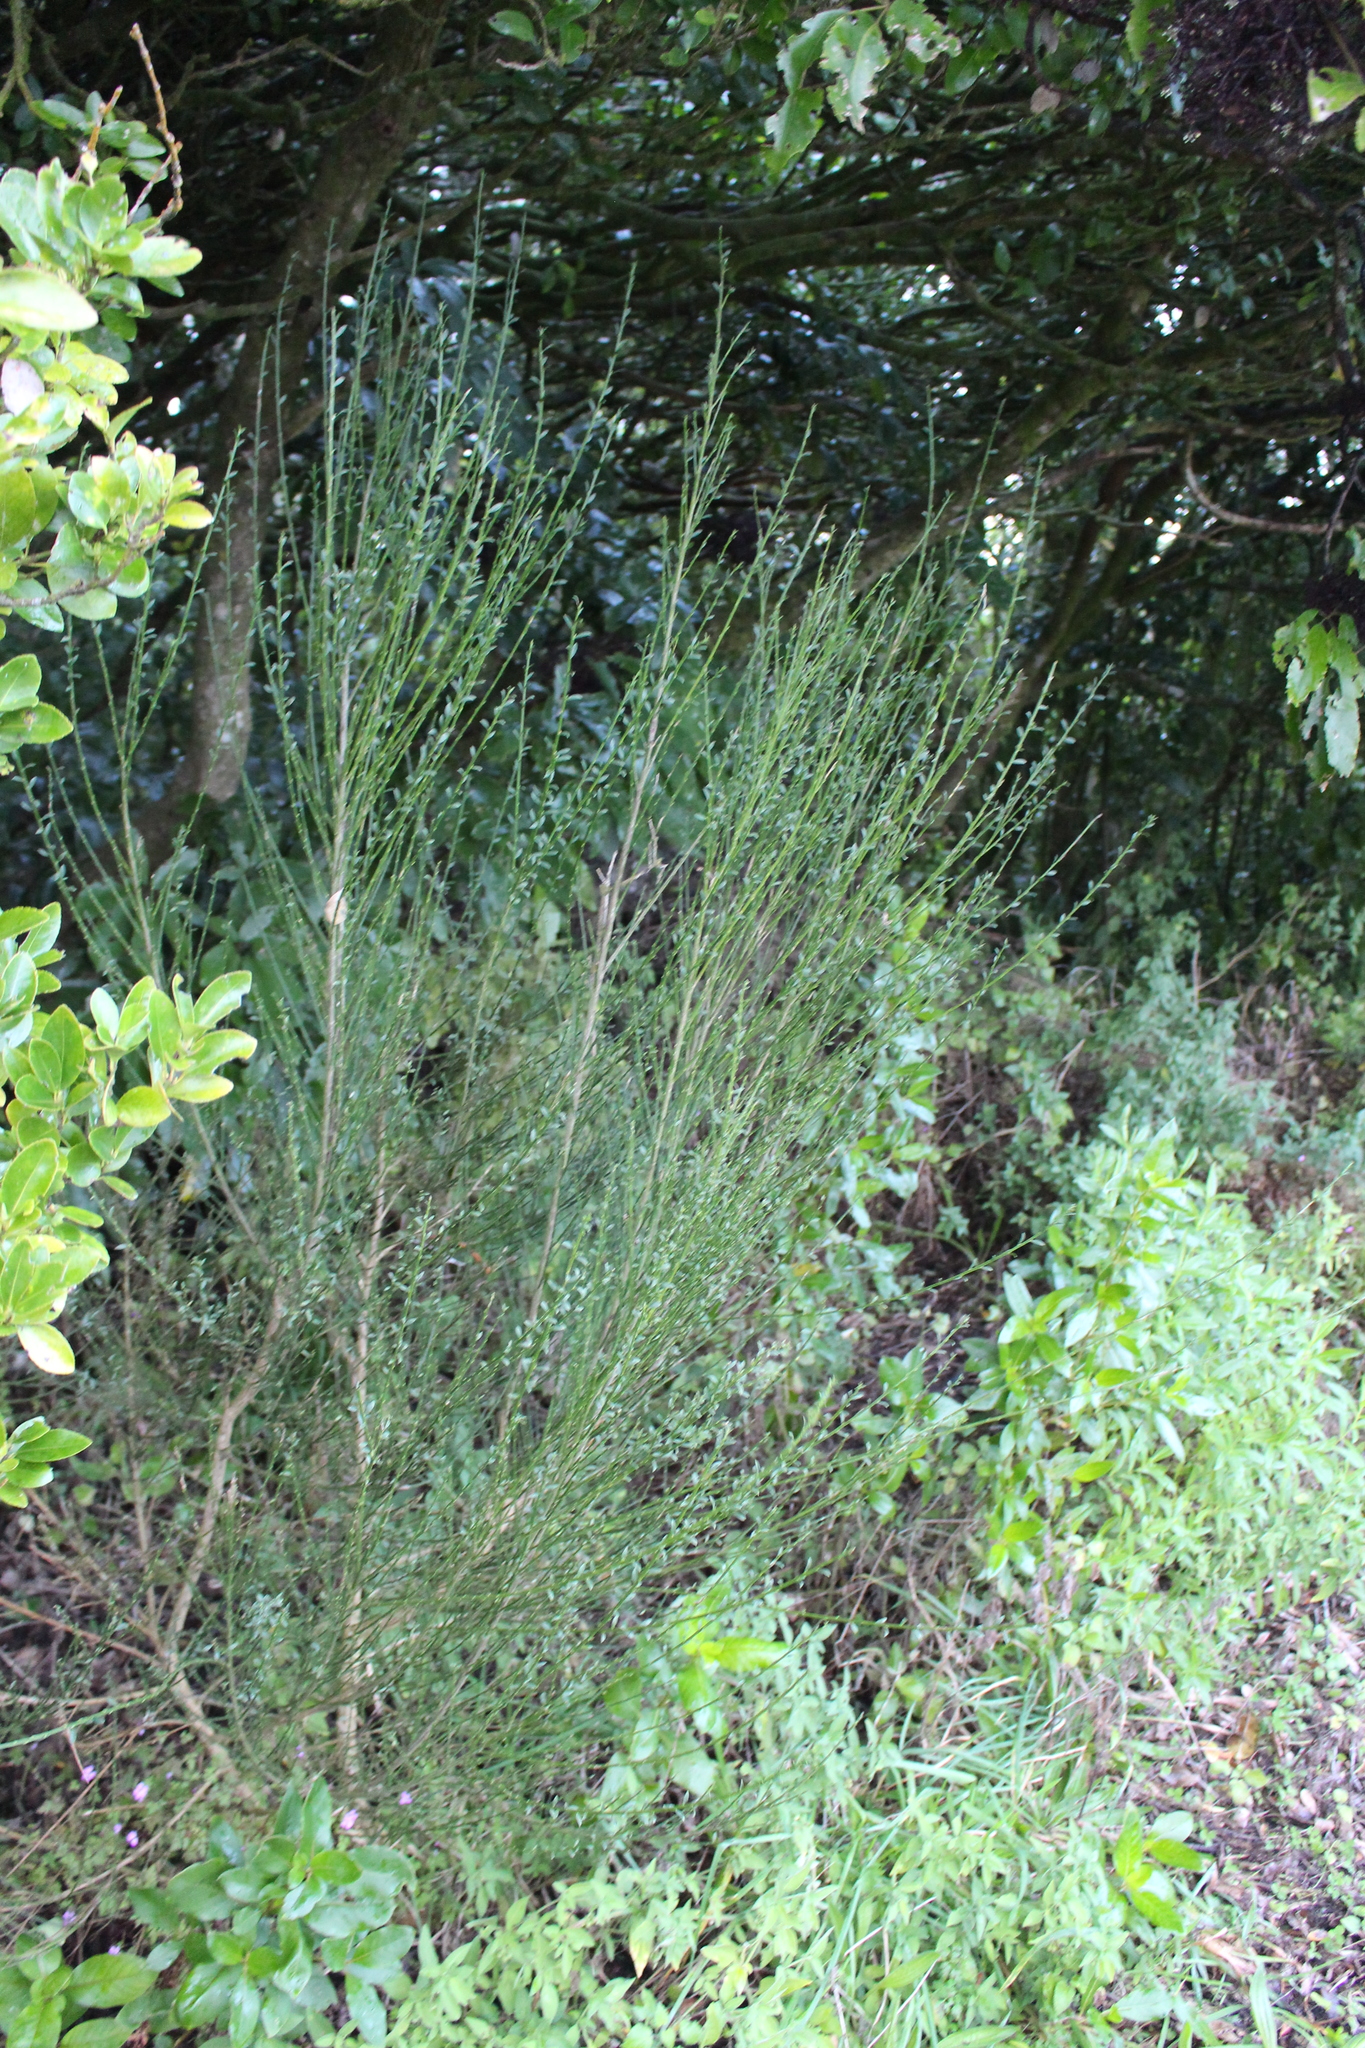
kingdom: Plantae
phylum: Tracheophyta
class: Magnoliopsida
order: Fabales
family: Fabaceae
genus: Cytisus
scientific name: Cytisus scoparius
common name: Scotch broom
